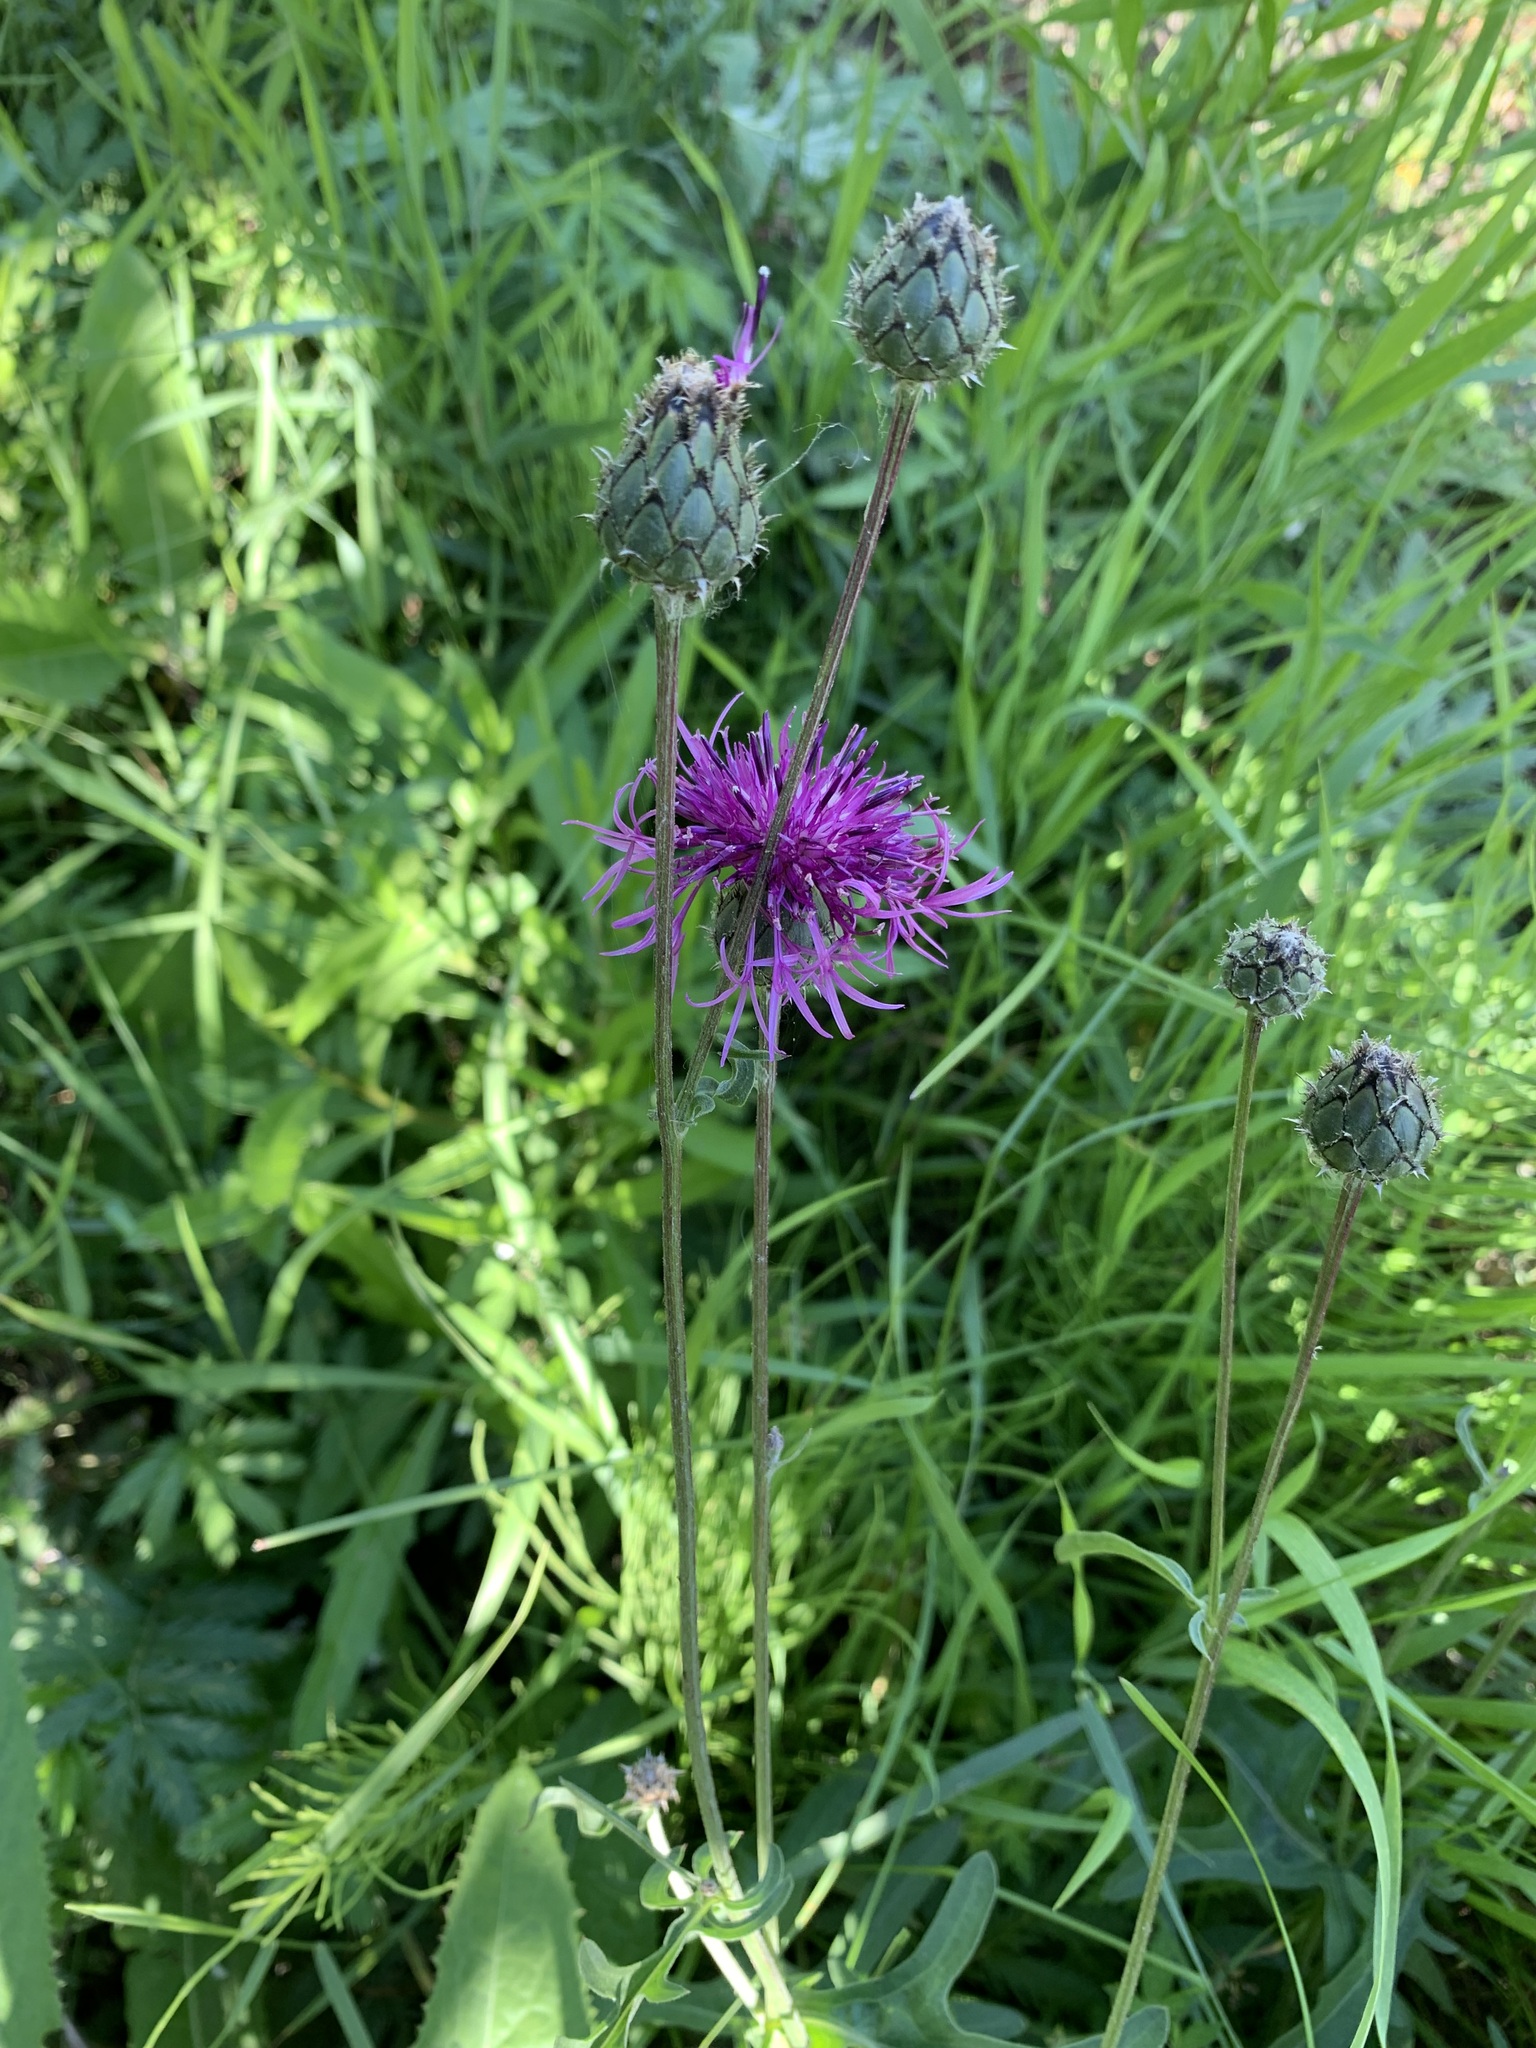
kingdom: Plantae
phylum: Tracheophyta
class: Magnoliopsida
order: Asterales
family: Asteraceae
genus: Centaurea
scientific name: Centaurea scabiosa
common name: Greater knapweed
